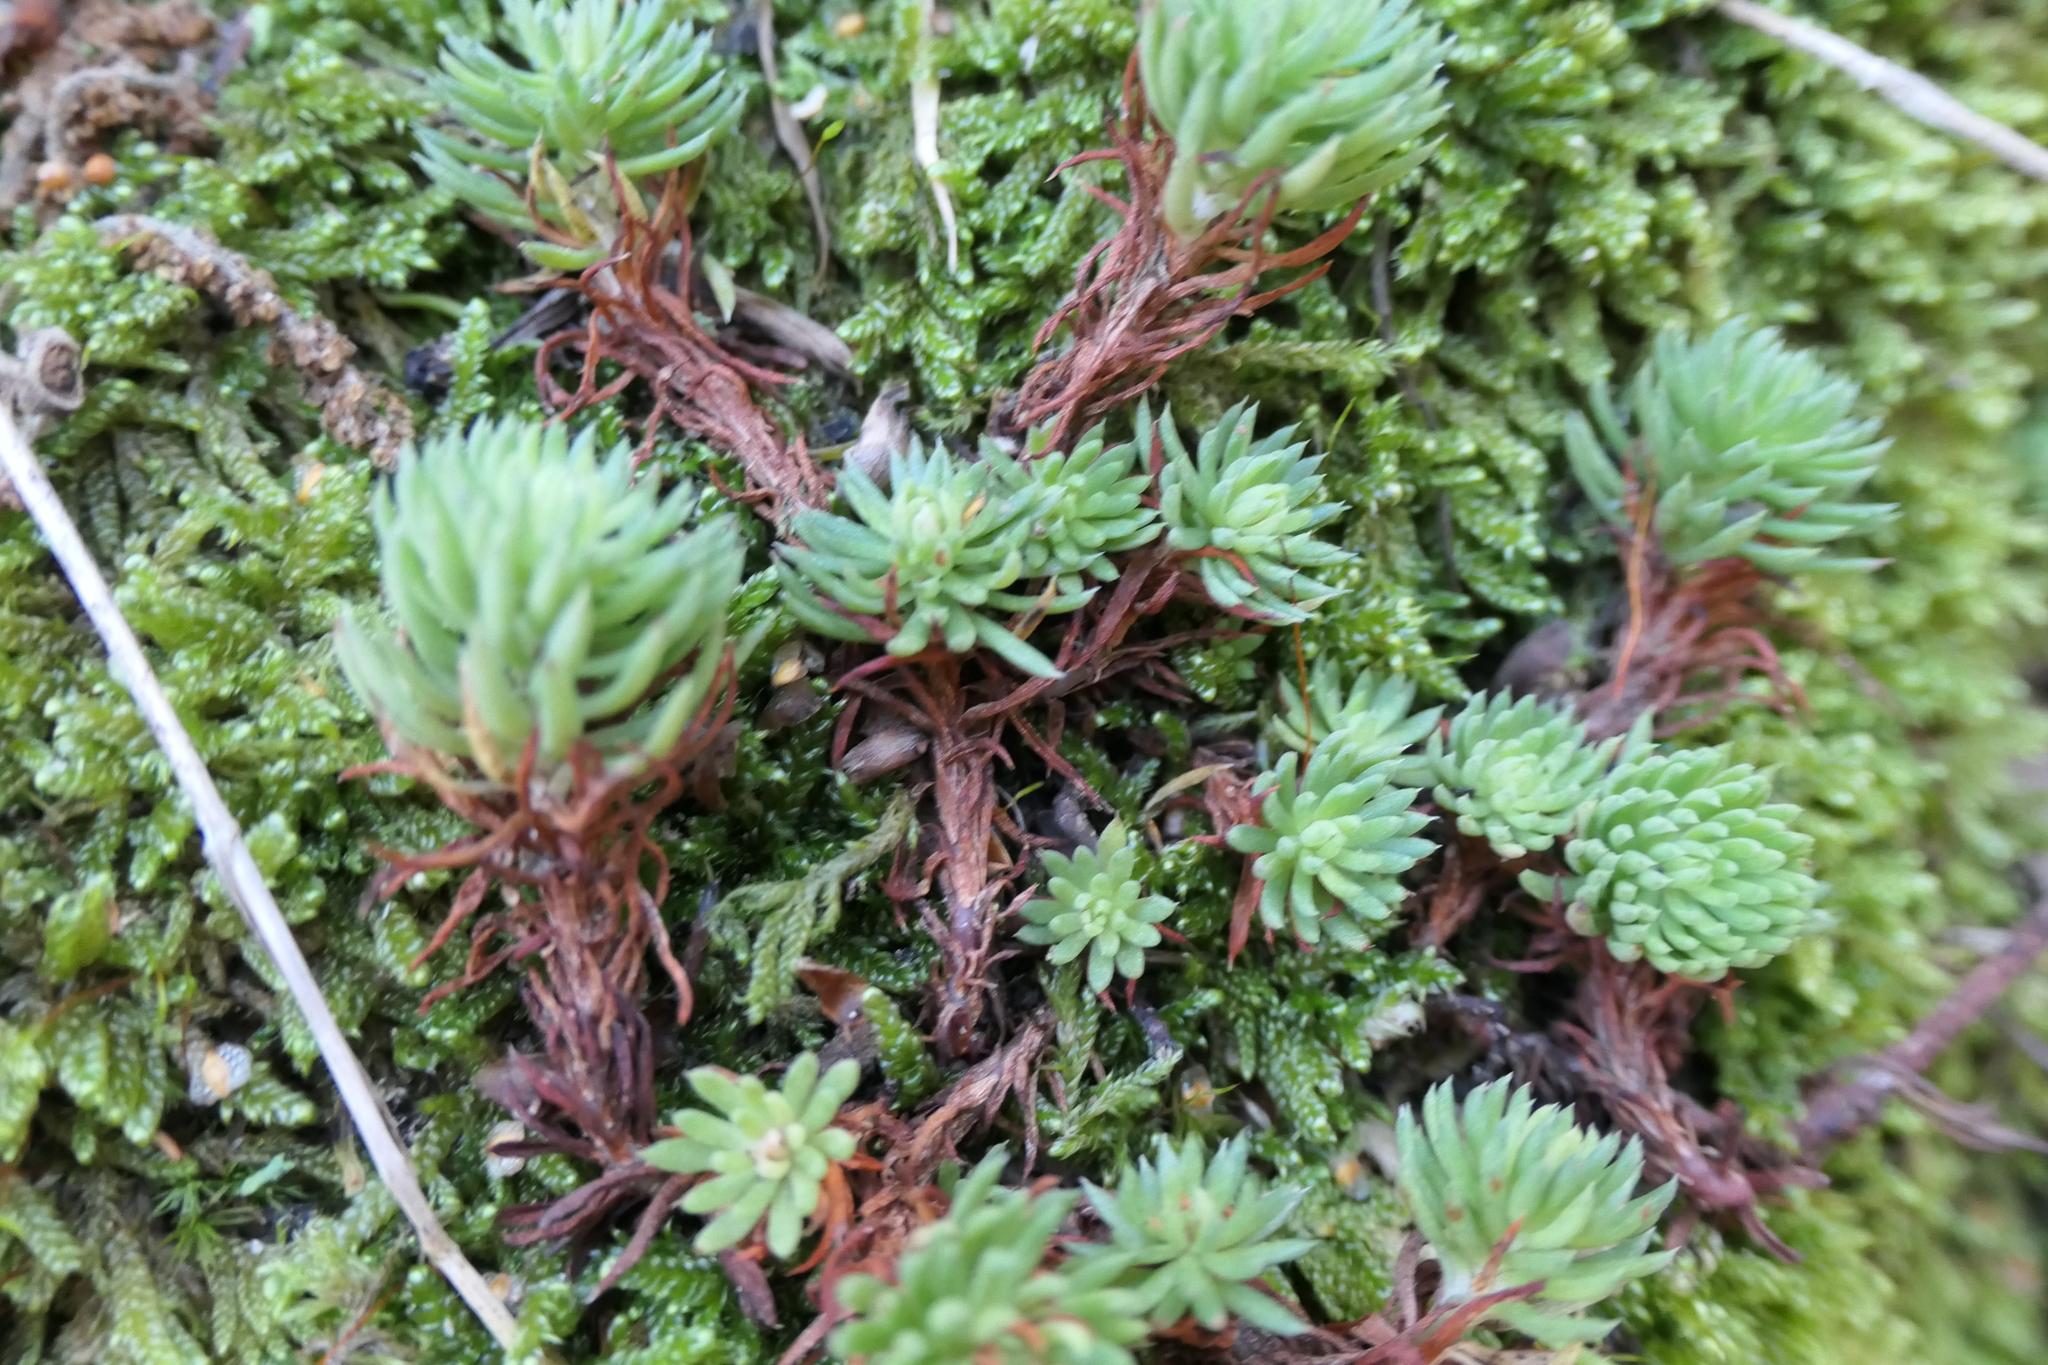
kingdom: Plantae
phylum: Tracheophyta
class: Magnoliopsida
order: Saxifragales
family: Crassulaceae
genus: Petrosedum
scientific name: Petrosedum forsterianum
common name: Forster's stonecrop
